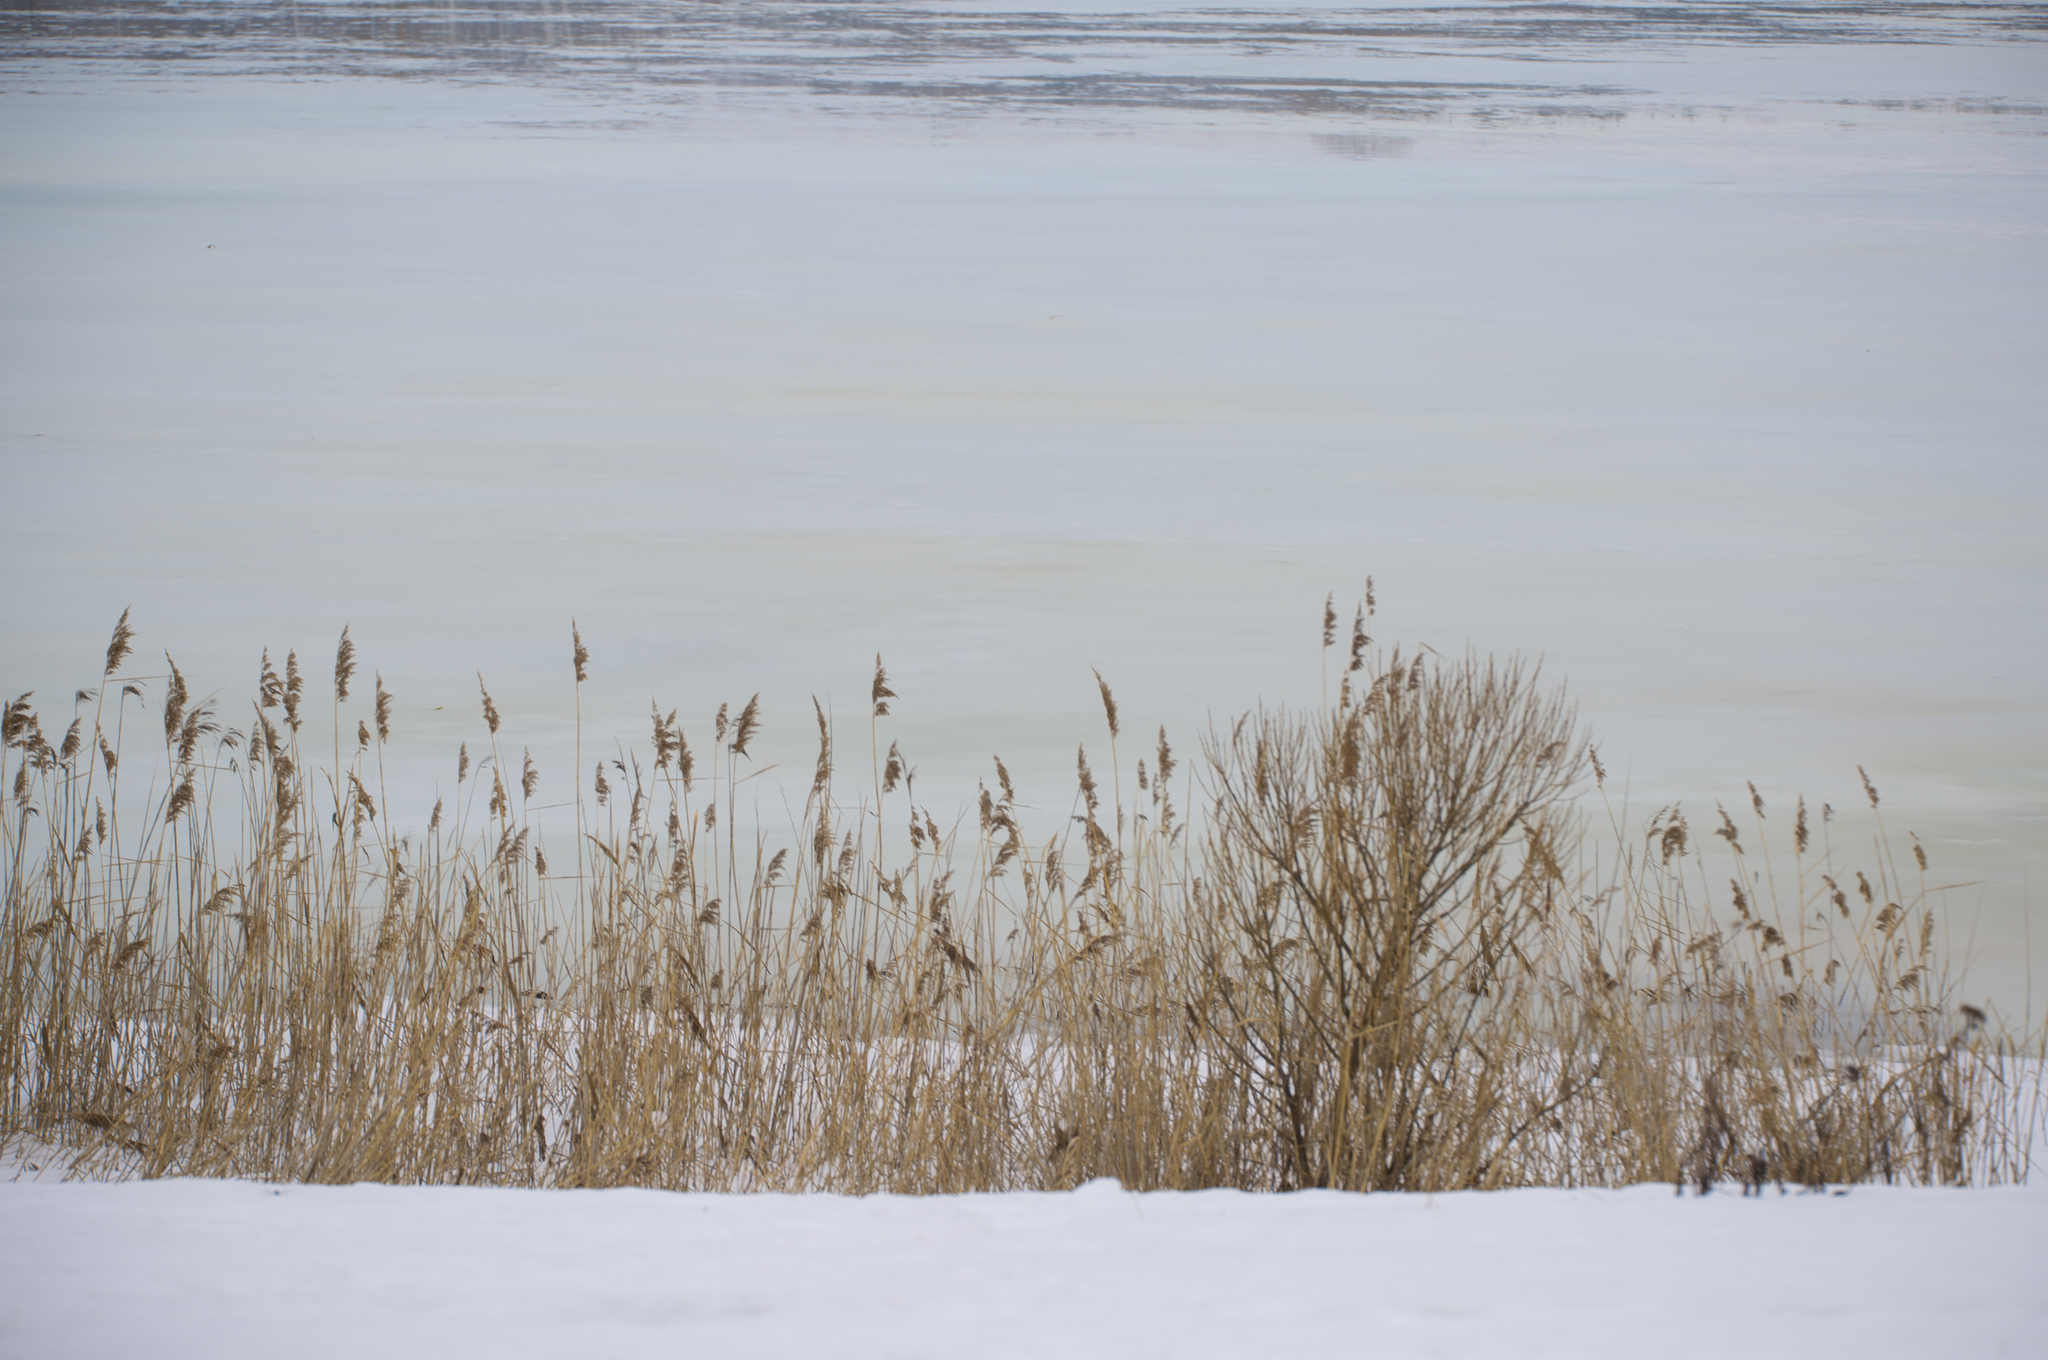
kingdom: Plantae
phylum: Tracheophyta
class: Liliopsida
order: Poales
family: Poaceae
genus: Phragmites
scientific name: Phragmites australis
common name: Common reed
